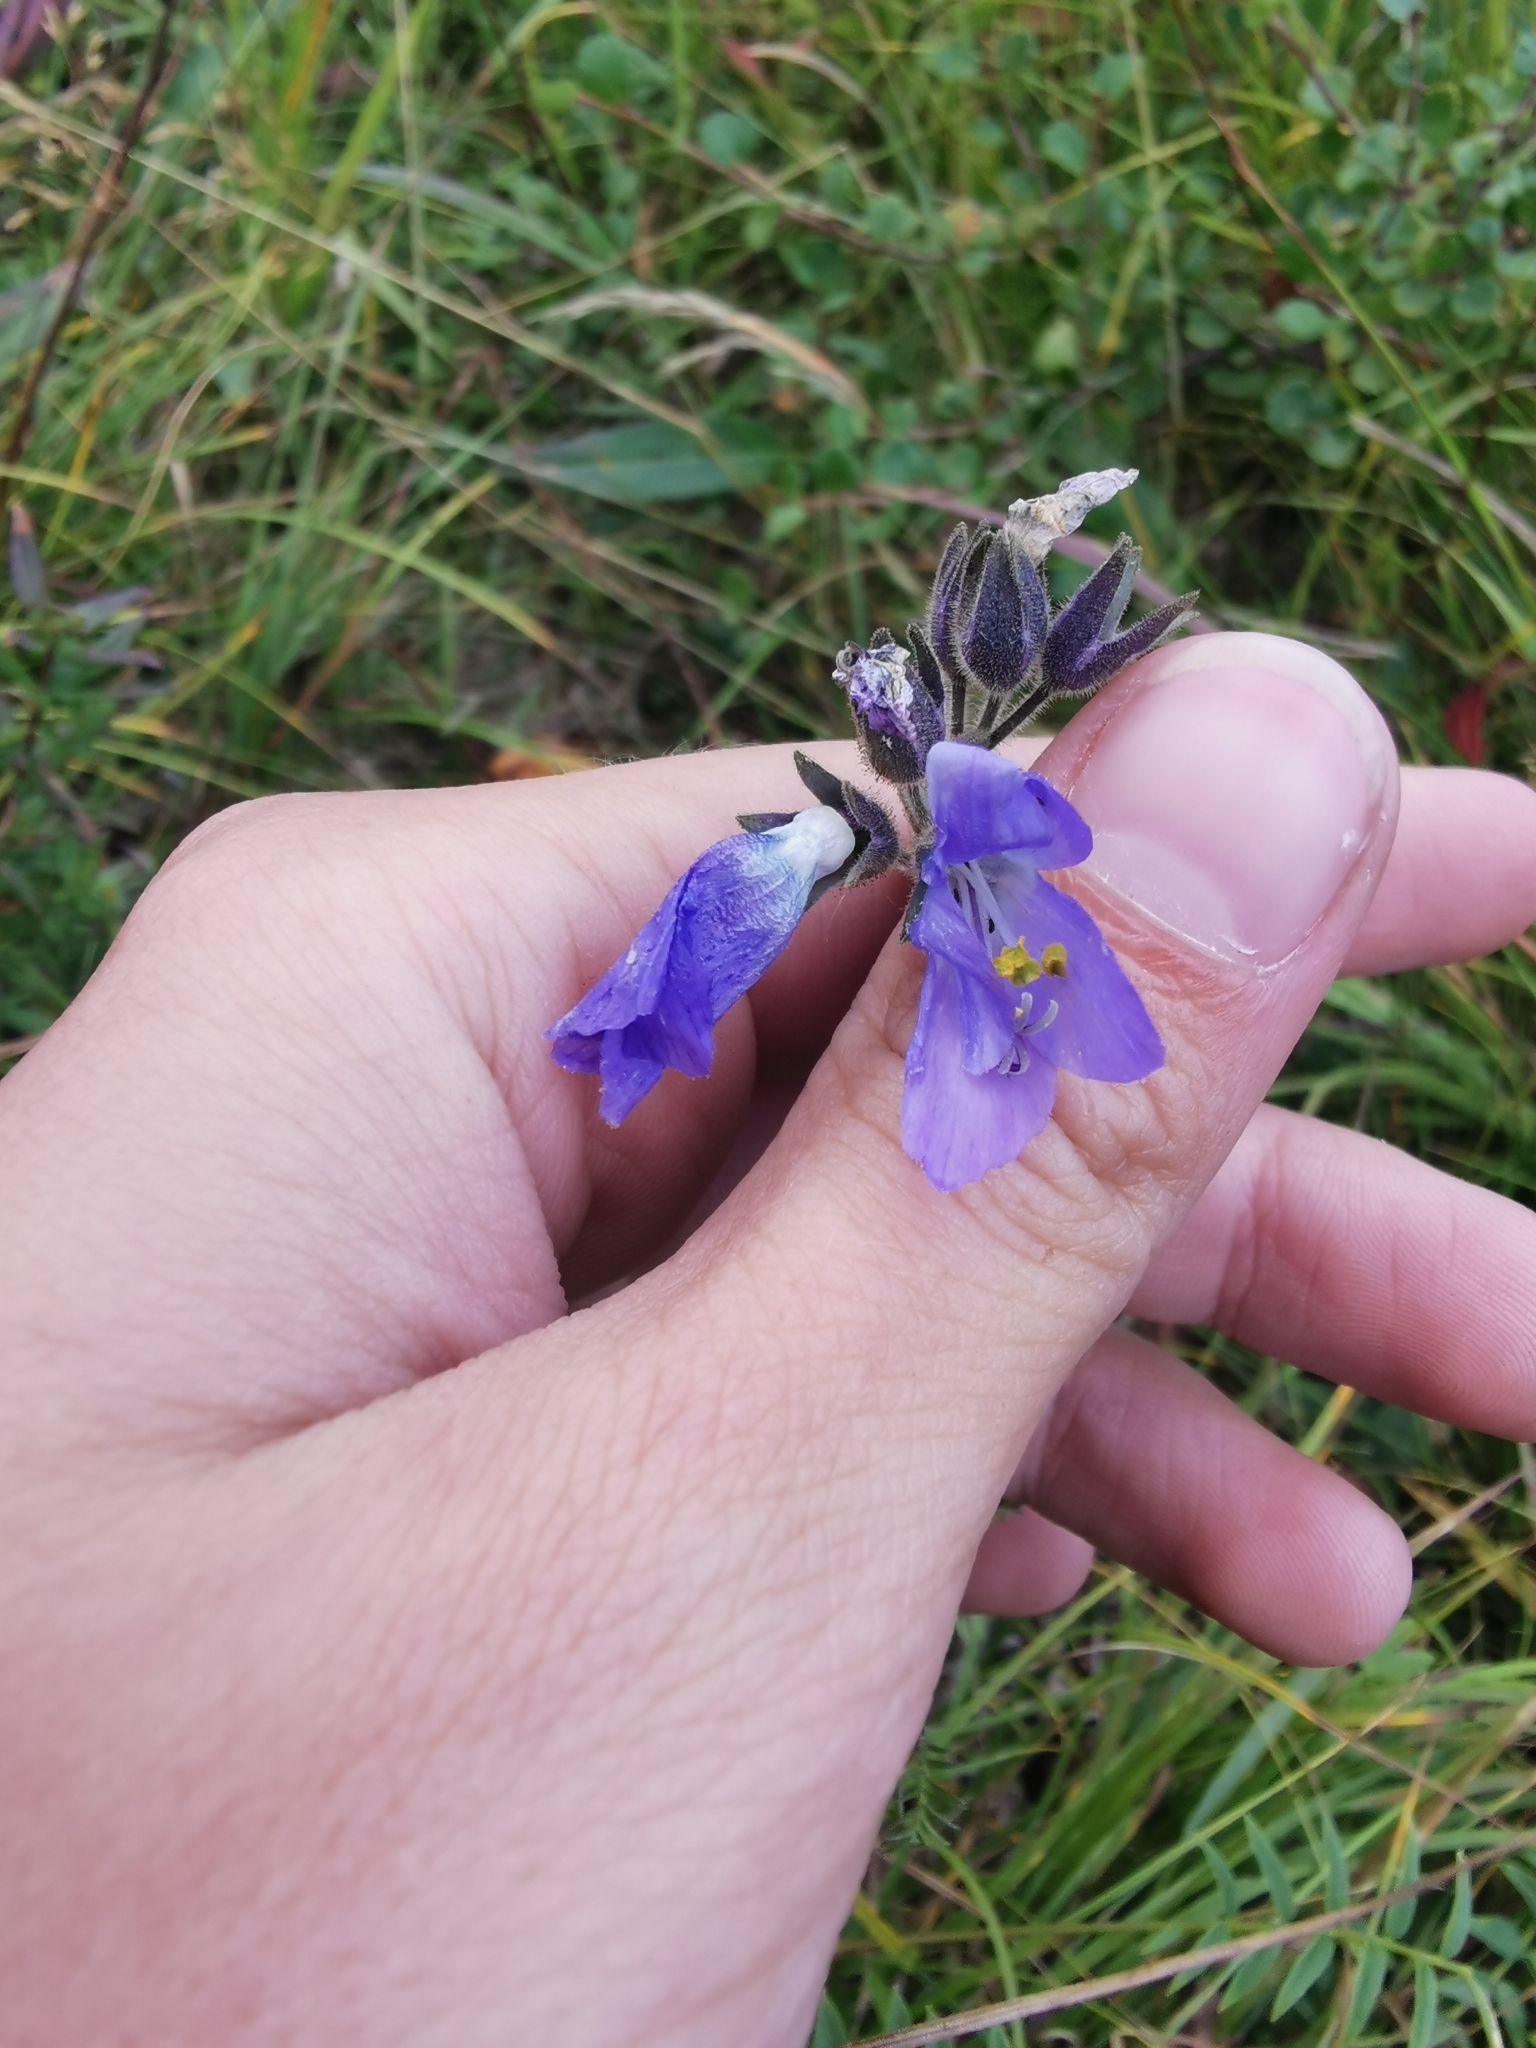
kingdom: Plantae
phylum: Tracheophyta
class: Magnoliopsida
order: Ericales
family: Polemoniaceae
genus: Polemonium
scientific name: Polemonium acutiflorum
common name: Tall jacob's-ladder
